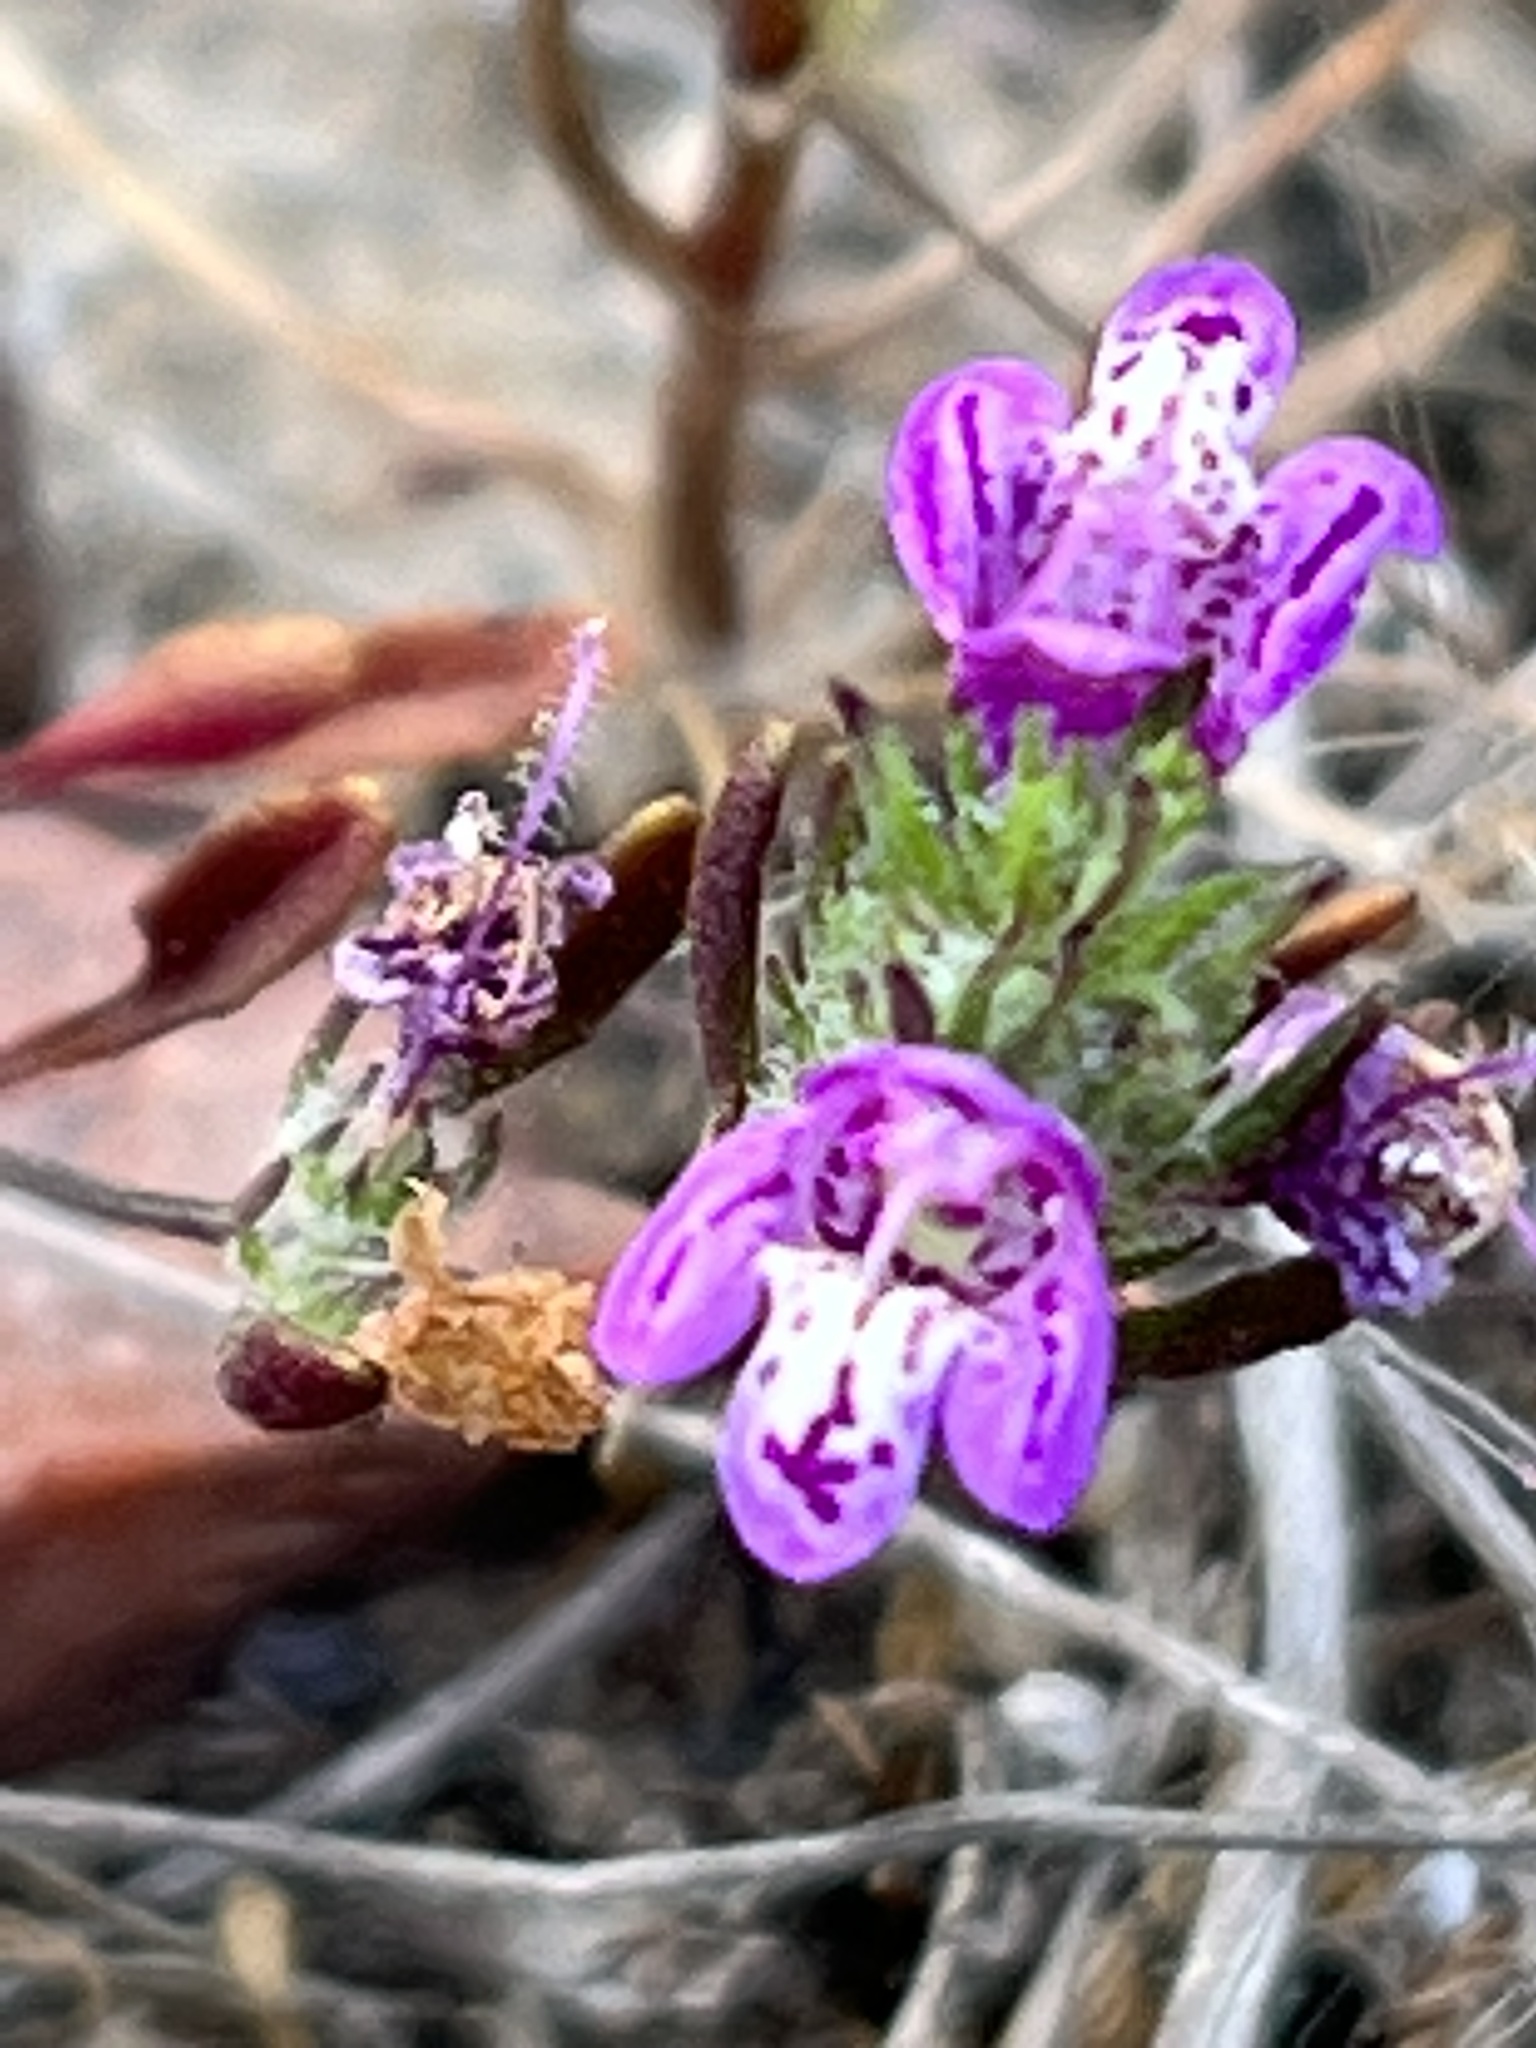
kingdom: Plantae
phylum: Tracheophyta
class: Magnoliopsida
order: Lamiales
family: Lamiaceae
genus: Pogogyne
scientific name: Pogogyne abramsii
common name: San diego mesa-mint
